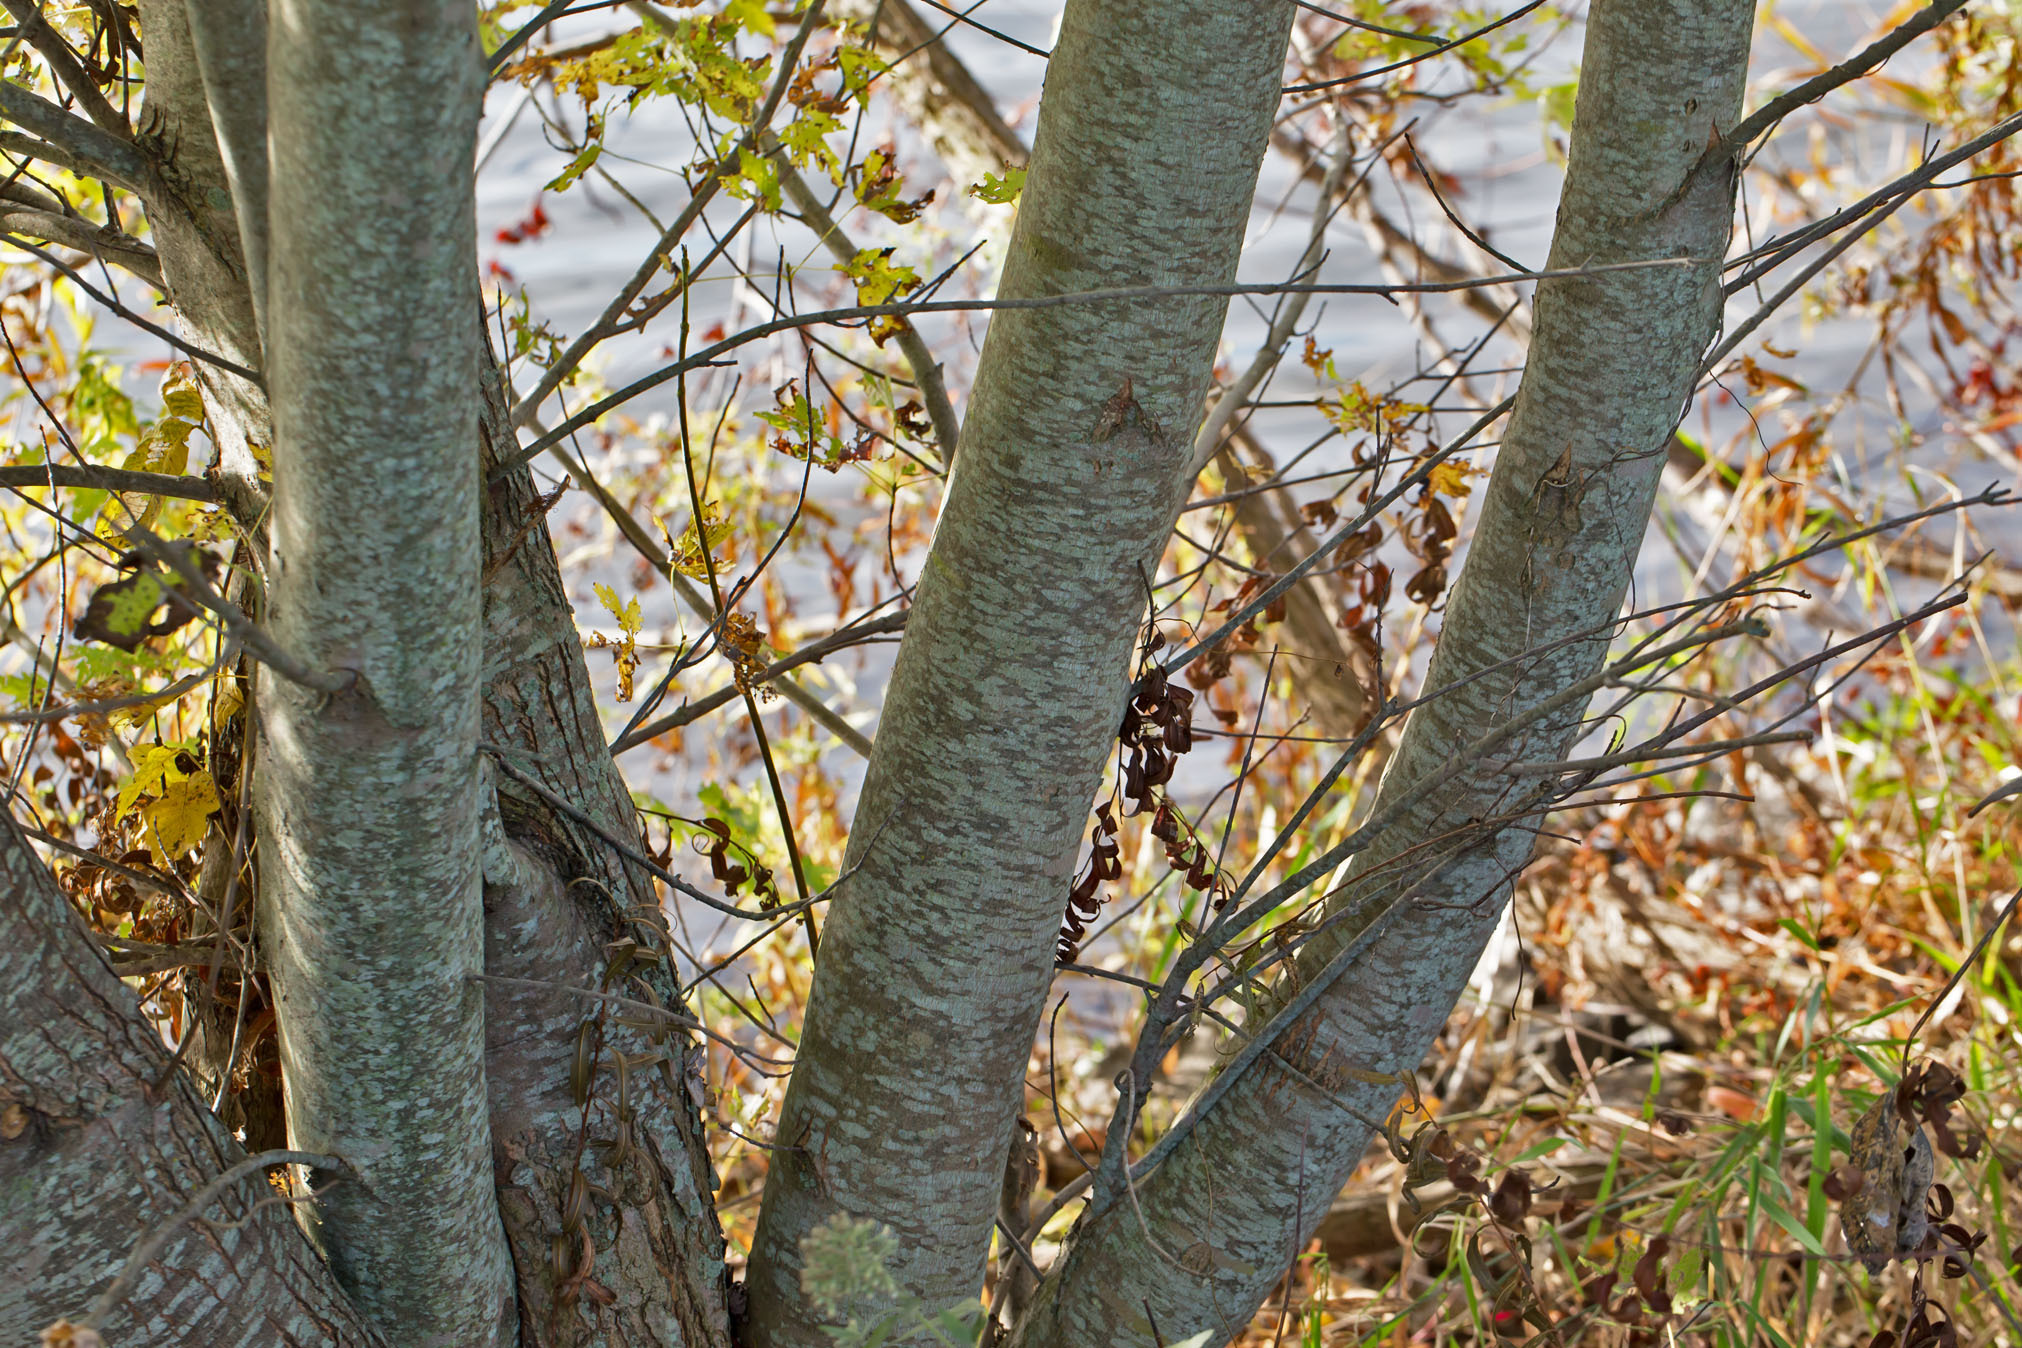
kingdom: Plantae
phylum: Tracheophyta
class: Magnoliopsida
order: Sapindales
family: Sapindaceae
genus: Acer
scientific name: Acer saccharinum
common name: Silver maple
